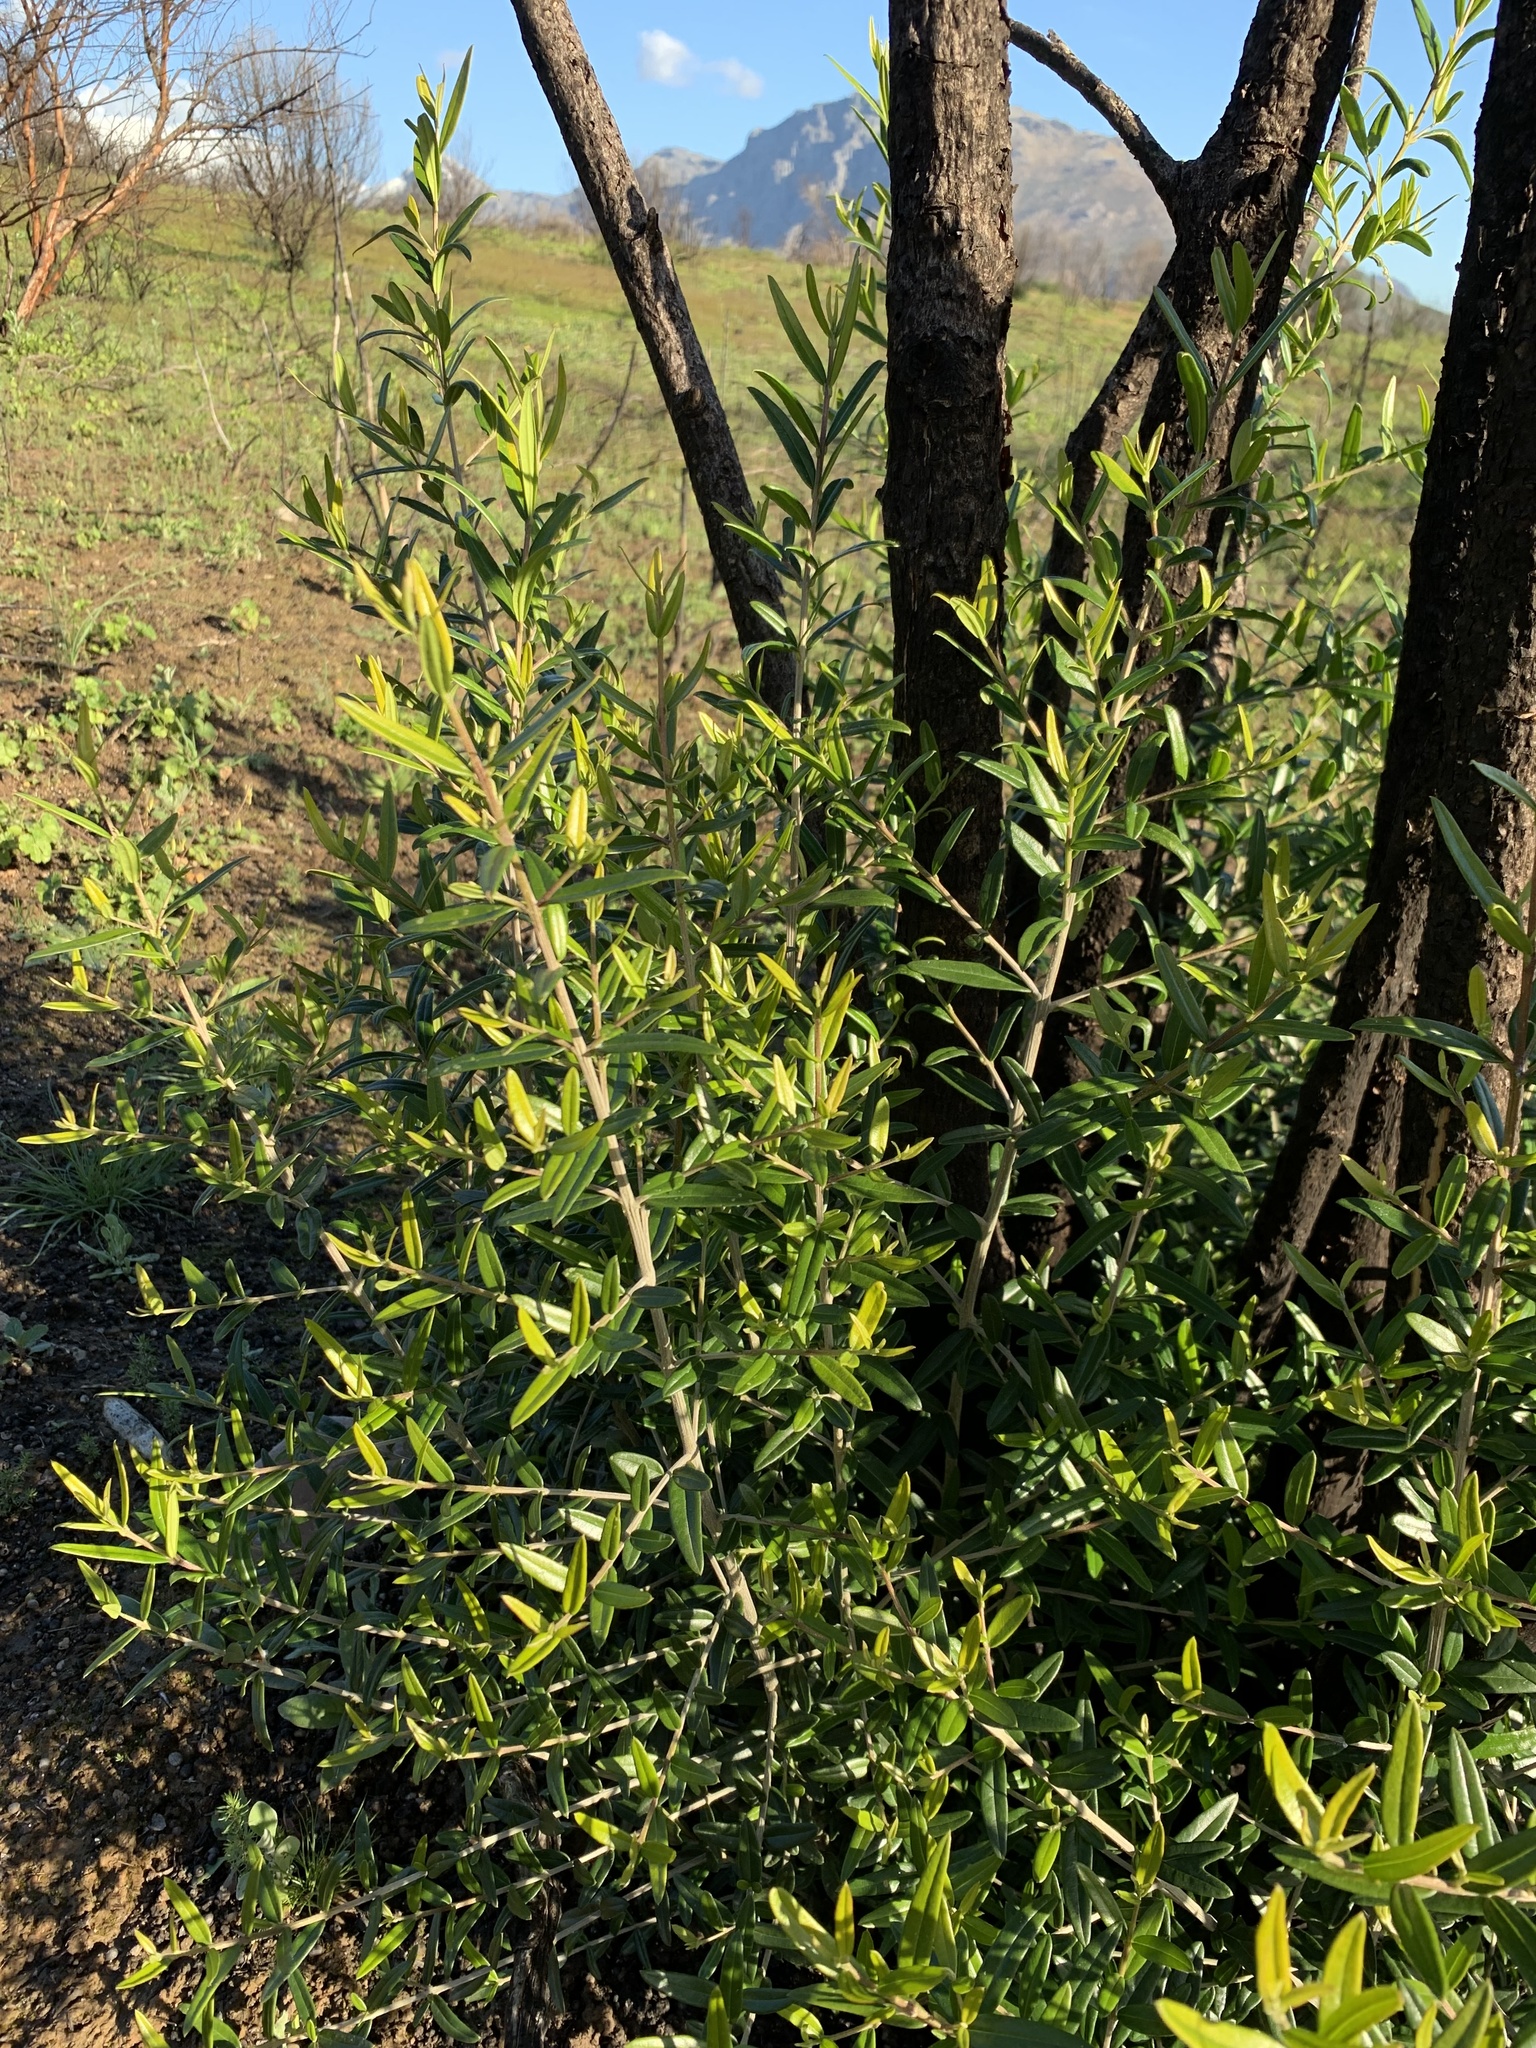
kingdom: Plantae
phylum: Tracheophyta
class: Magnoliopsida
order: Lamiales
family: Oleaceae
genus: Olea
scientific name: Olea europaea
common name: Olive
